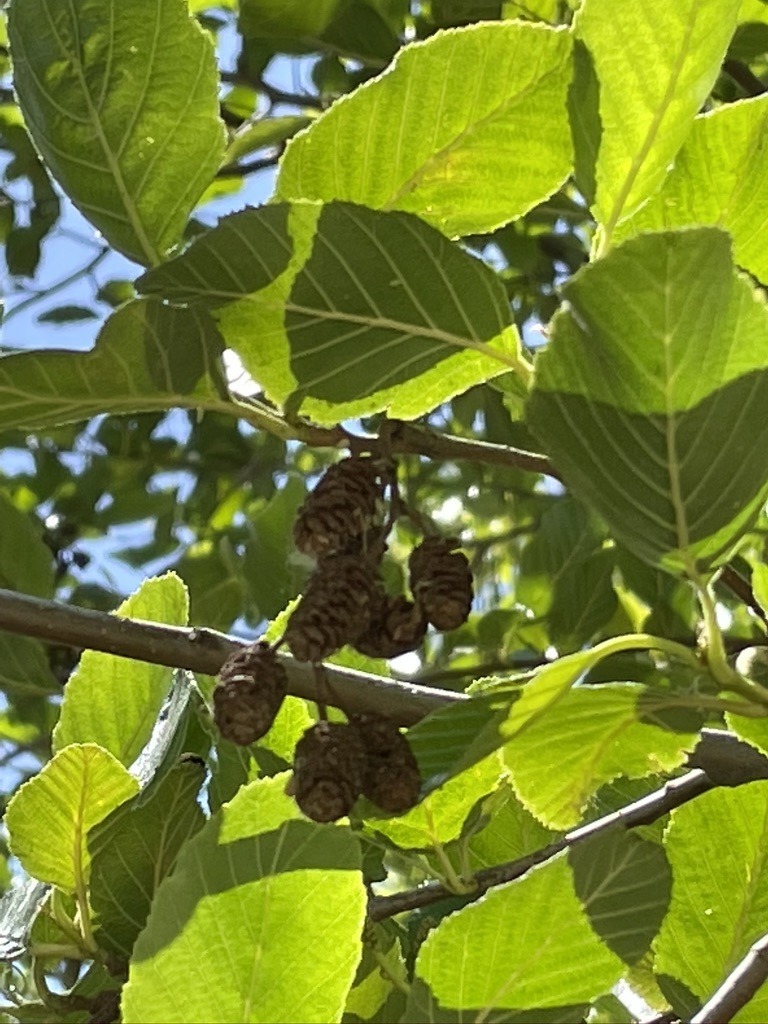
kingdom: Plantae
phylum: Tracheophyta
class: Magnoliopsida
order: Fagales
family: Betulaceae
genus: Alnus
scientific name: Alnus rhombifolia
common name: California alder
